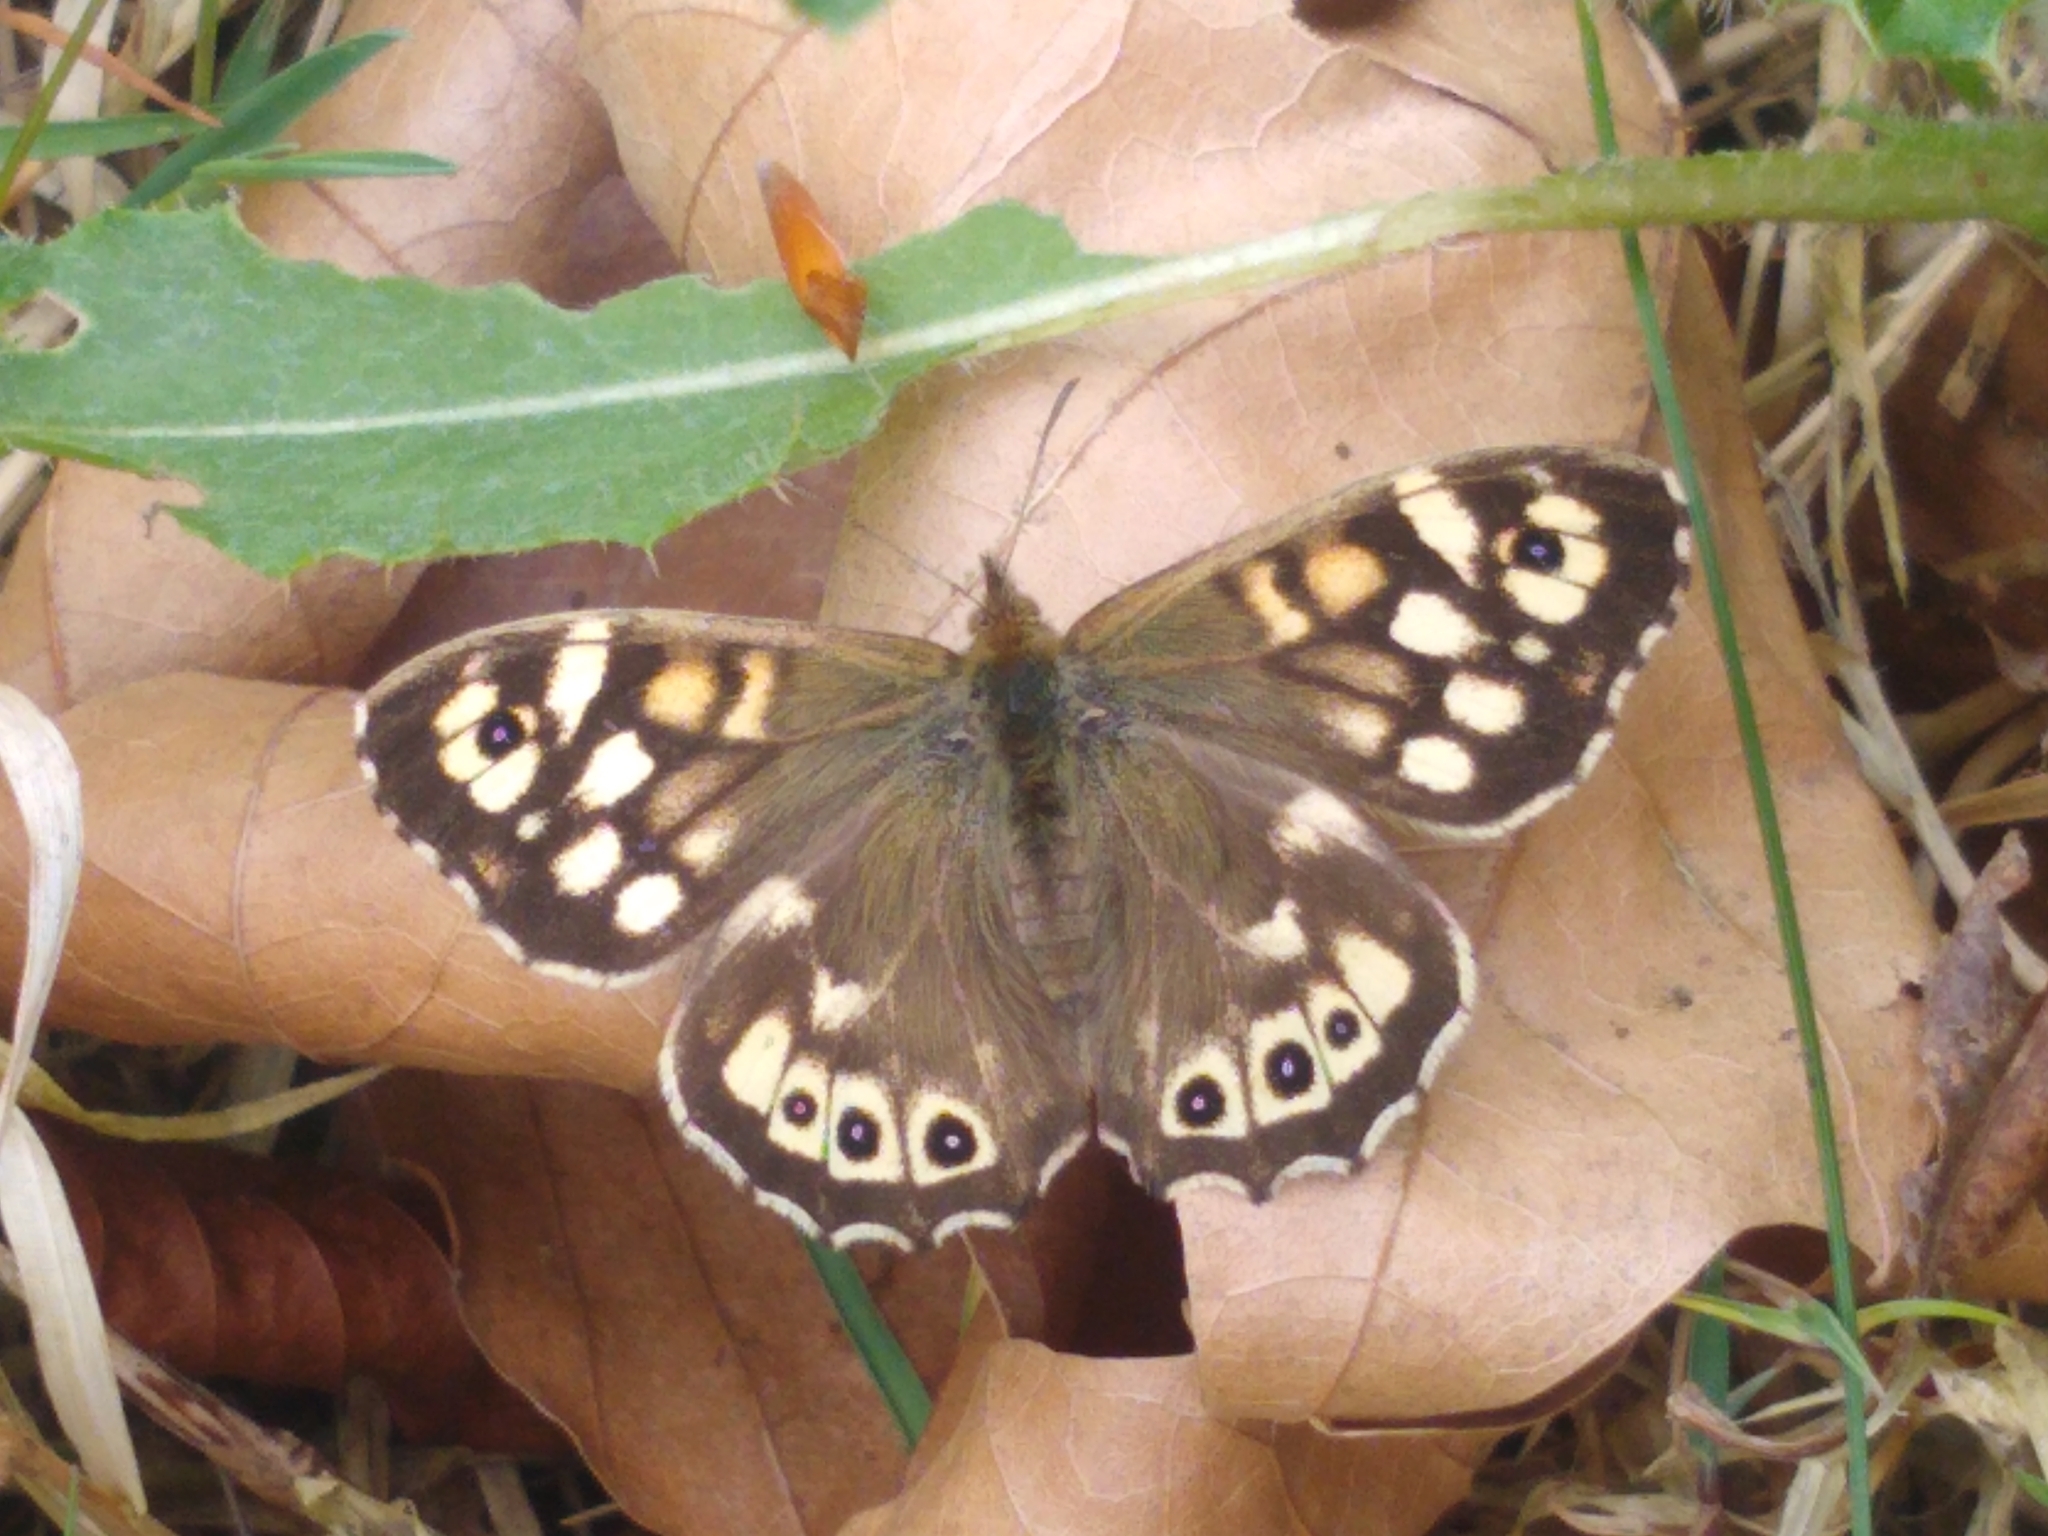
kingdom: Animalia
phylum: Arthropoda
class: Insecta
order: Lepidoptera
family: Nymphalidae
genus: Pararge
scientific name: Pararge aegeria
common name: Speckled wood
